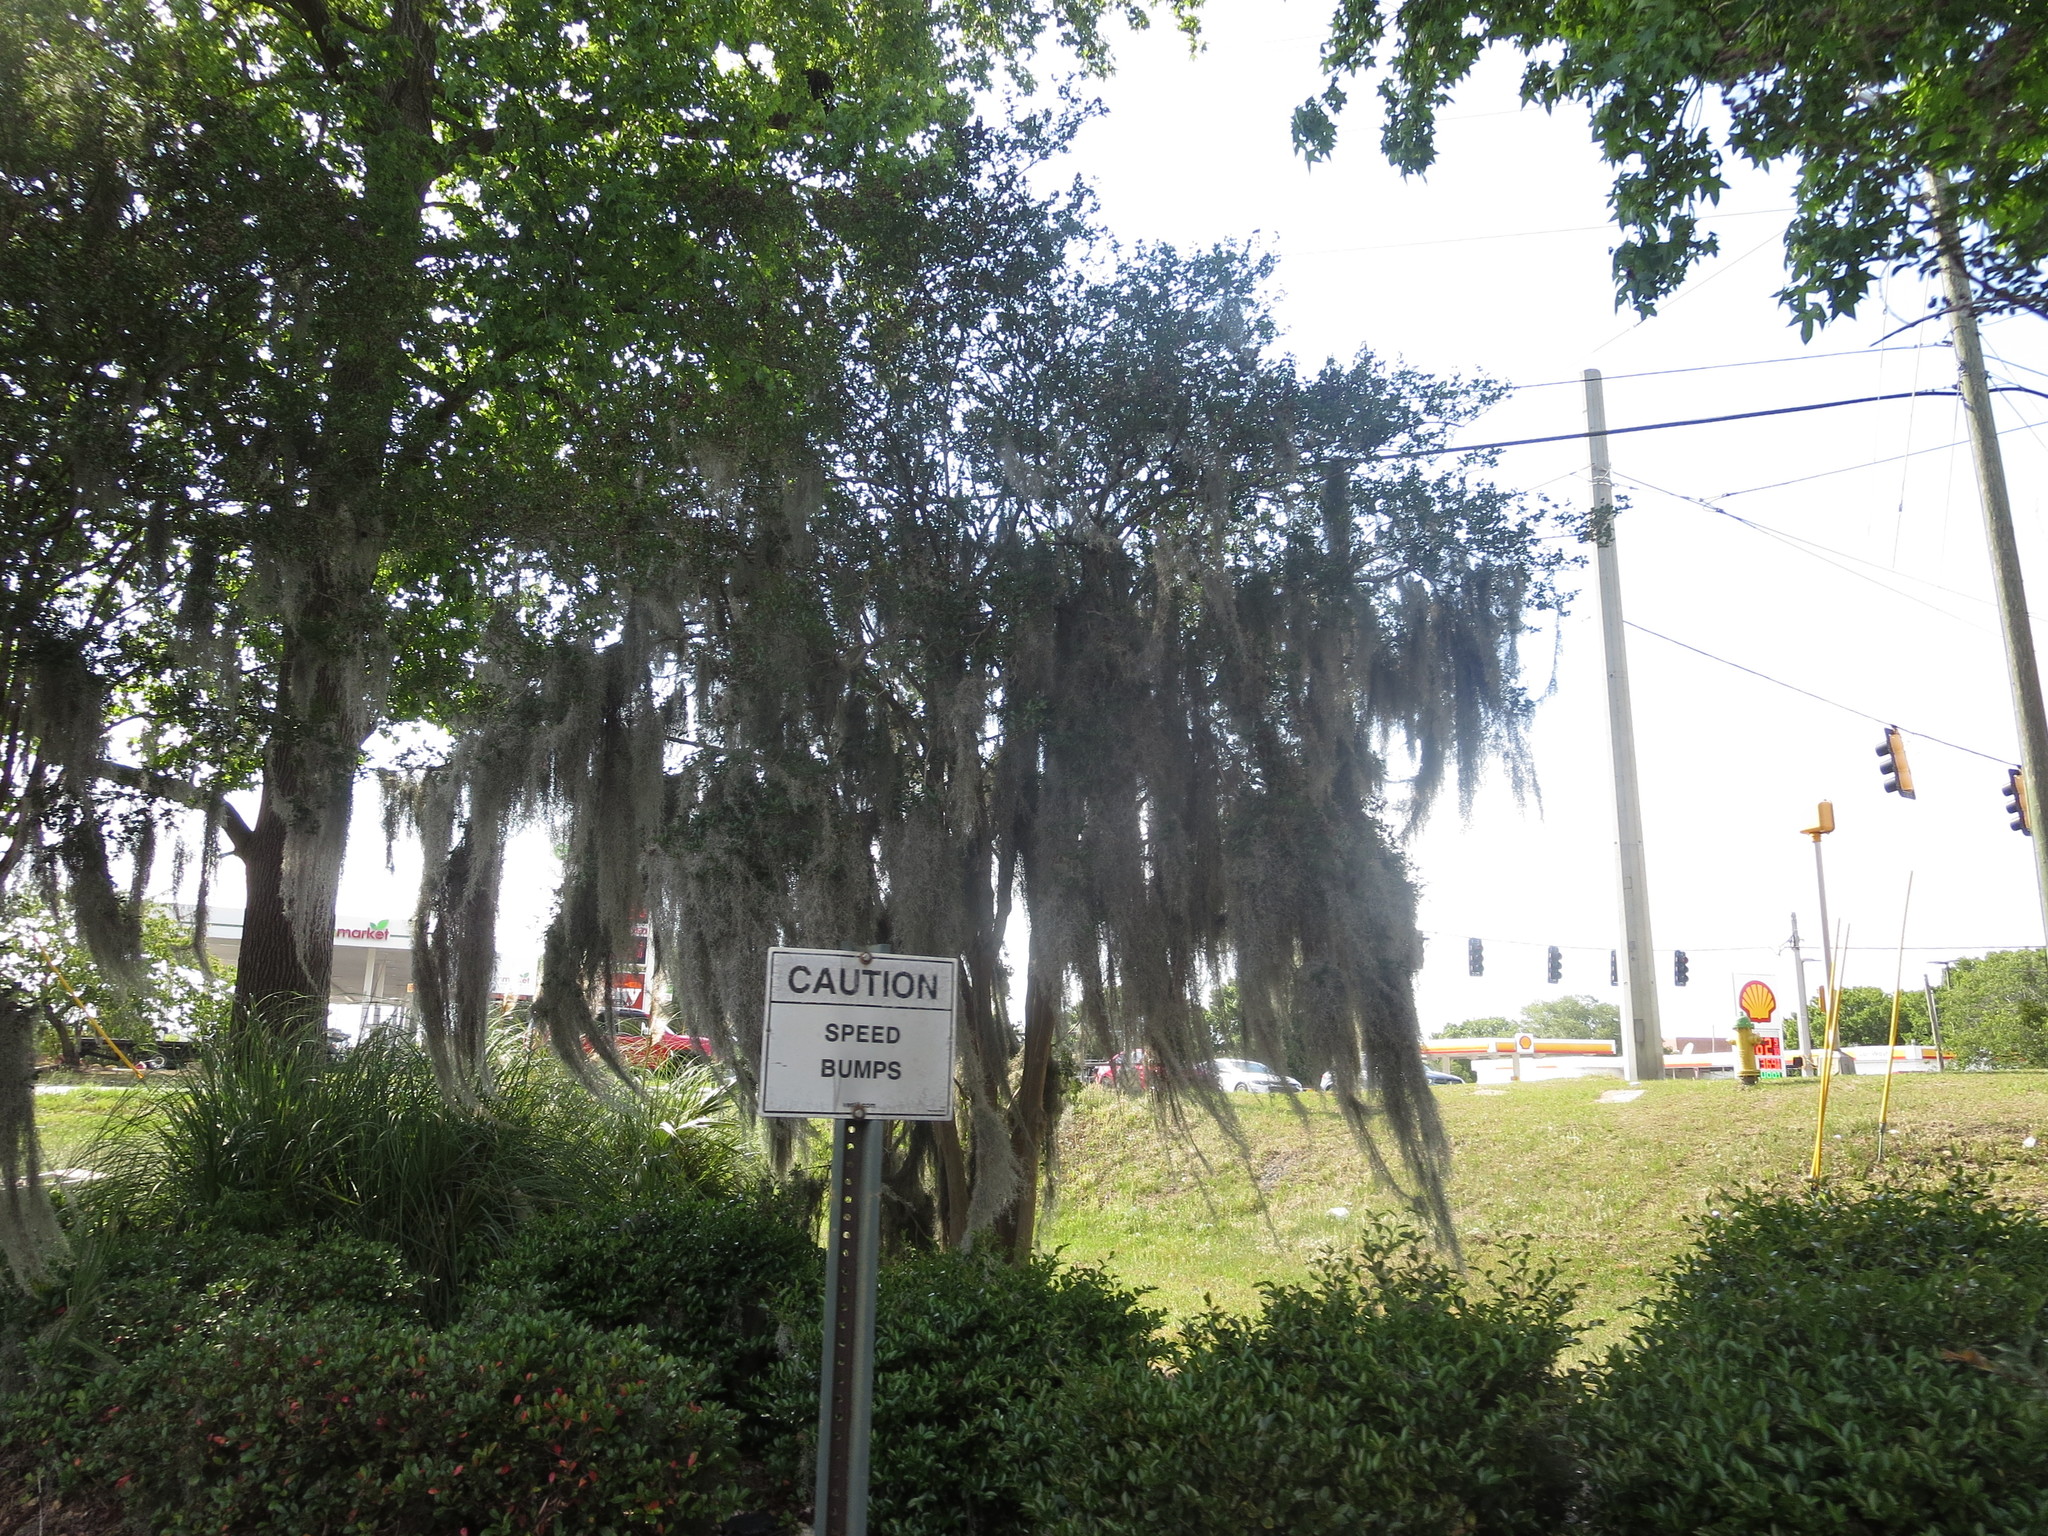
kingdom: Plantae
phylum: Tracheophyta
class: Liliopsida
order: Poales
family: Bromeliaceae
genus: Tillandsia
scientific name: Tillandsia usneoides
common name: Spanish moss
